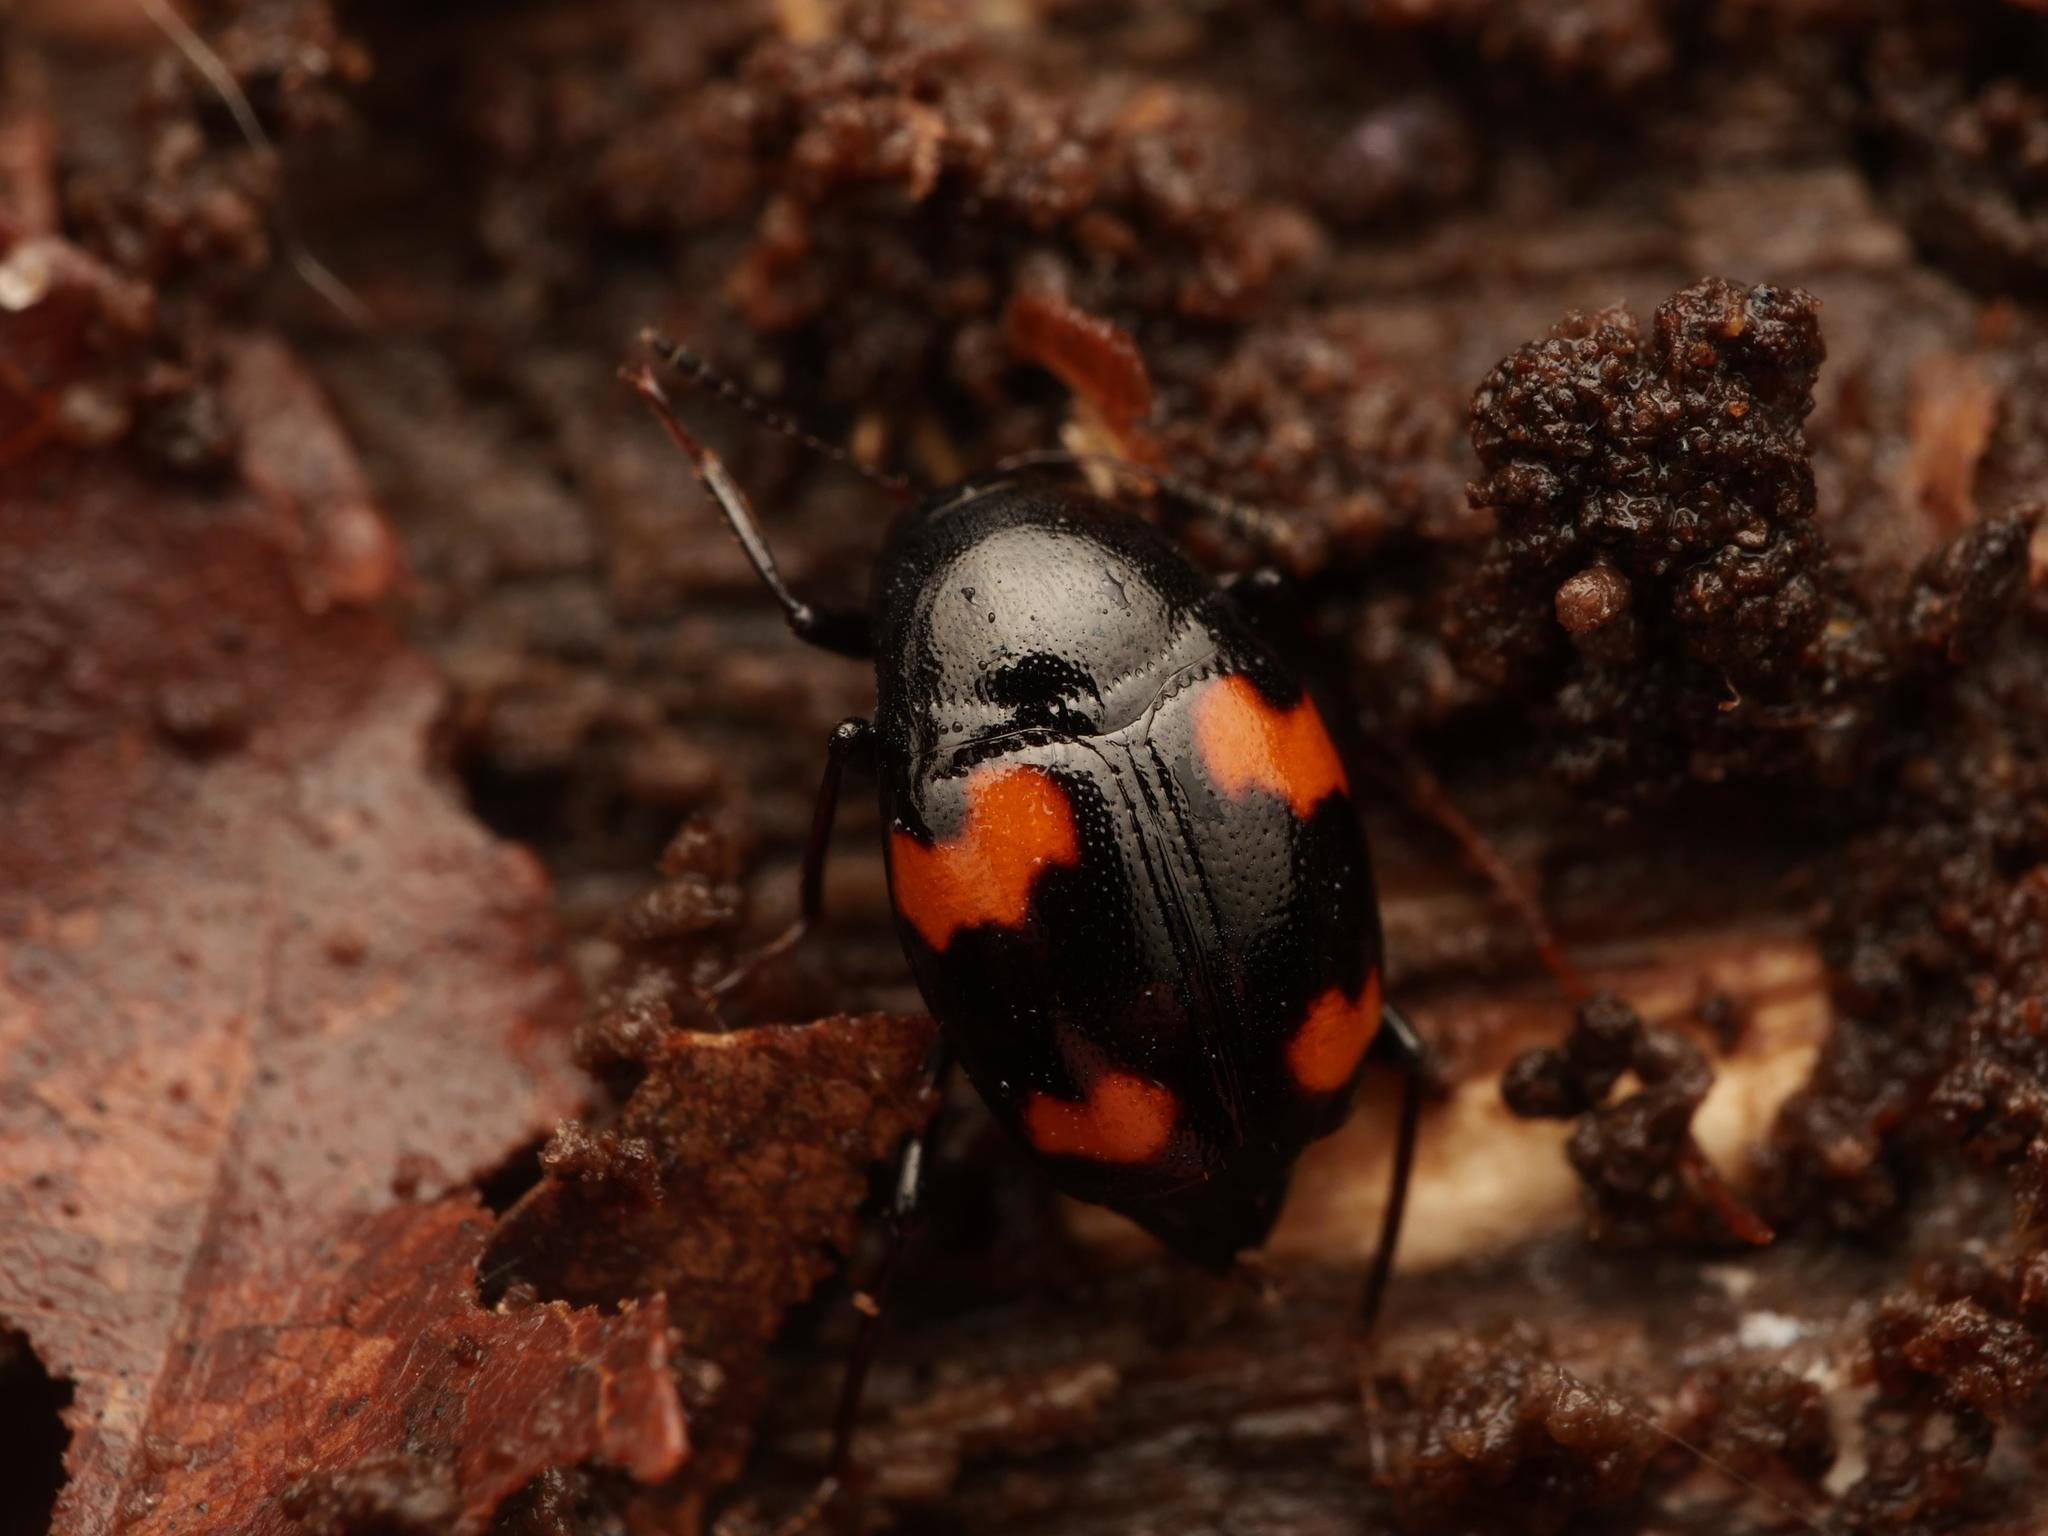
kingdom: Animalia
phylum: Arthropoda
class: Insecta
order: Coleoptera
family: Staphylinidae
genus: Scaphidium
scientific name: Scaphidium quadrimaculatum
